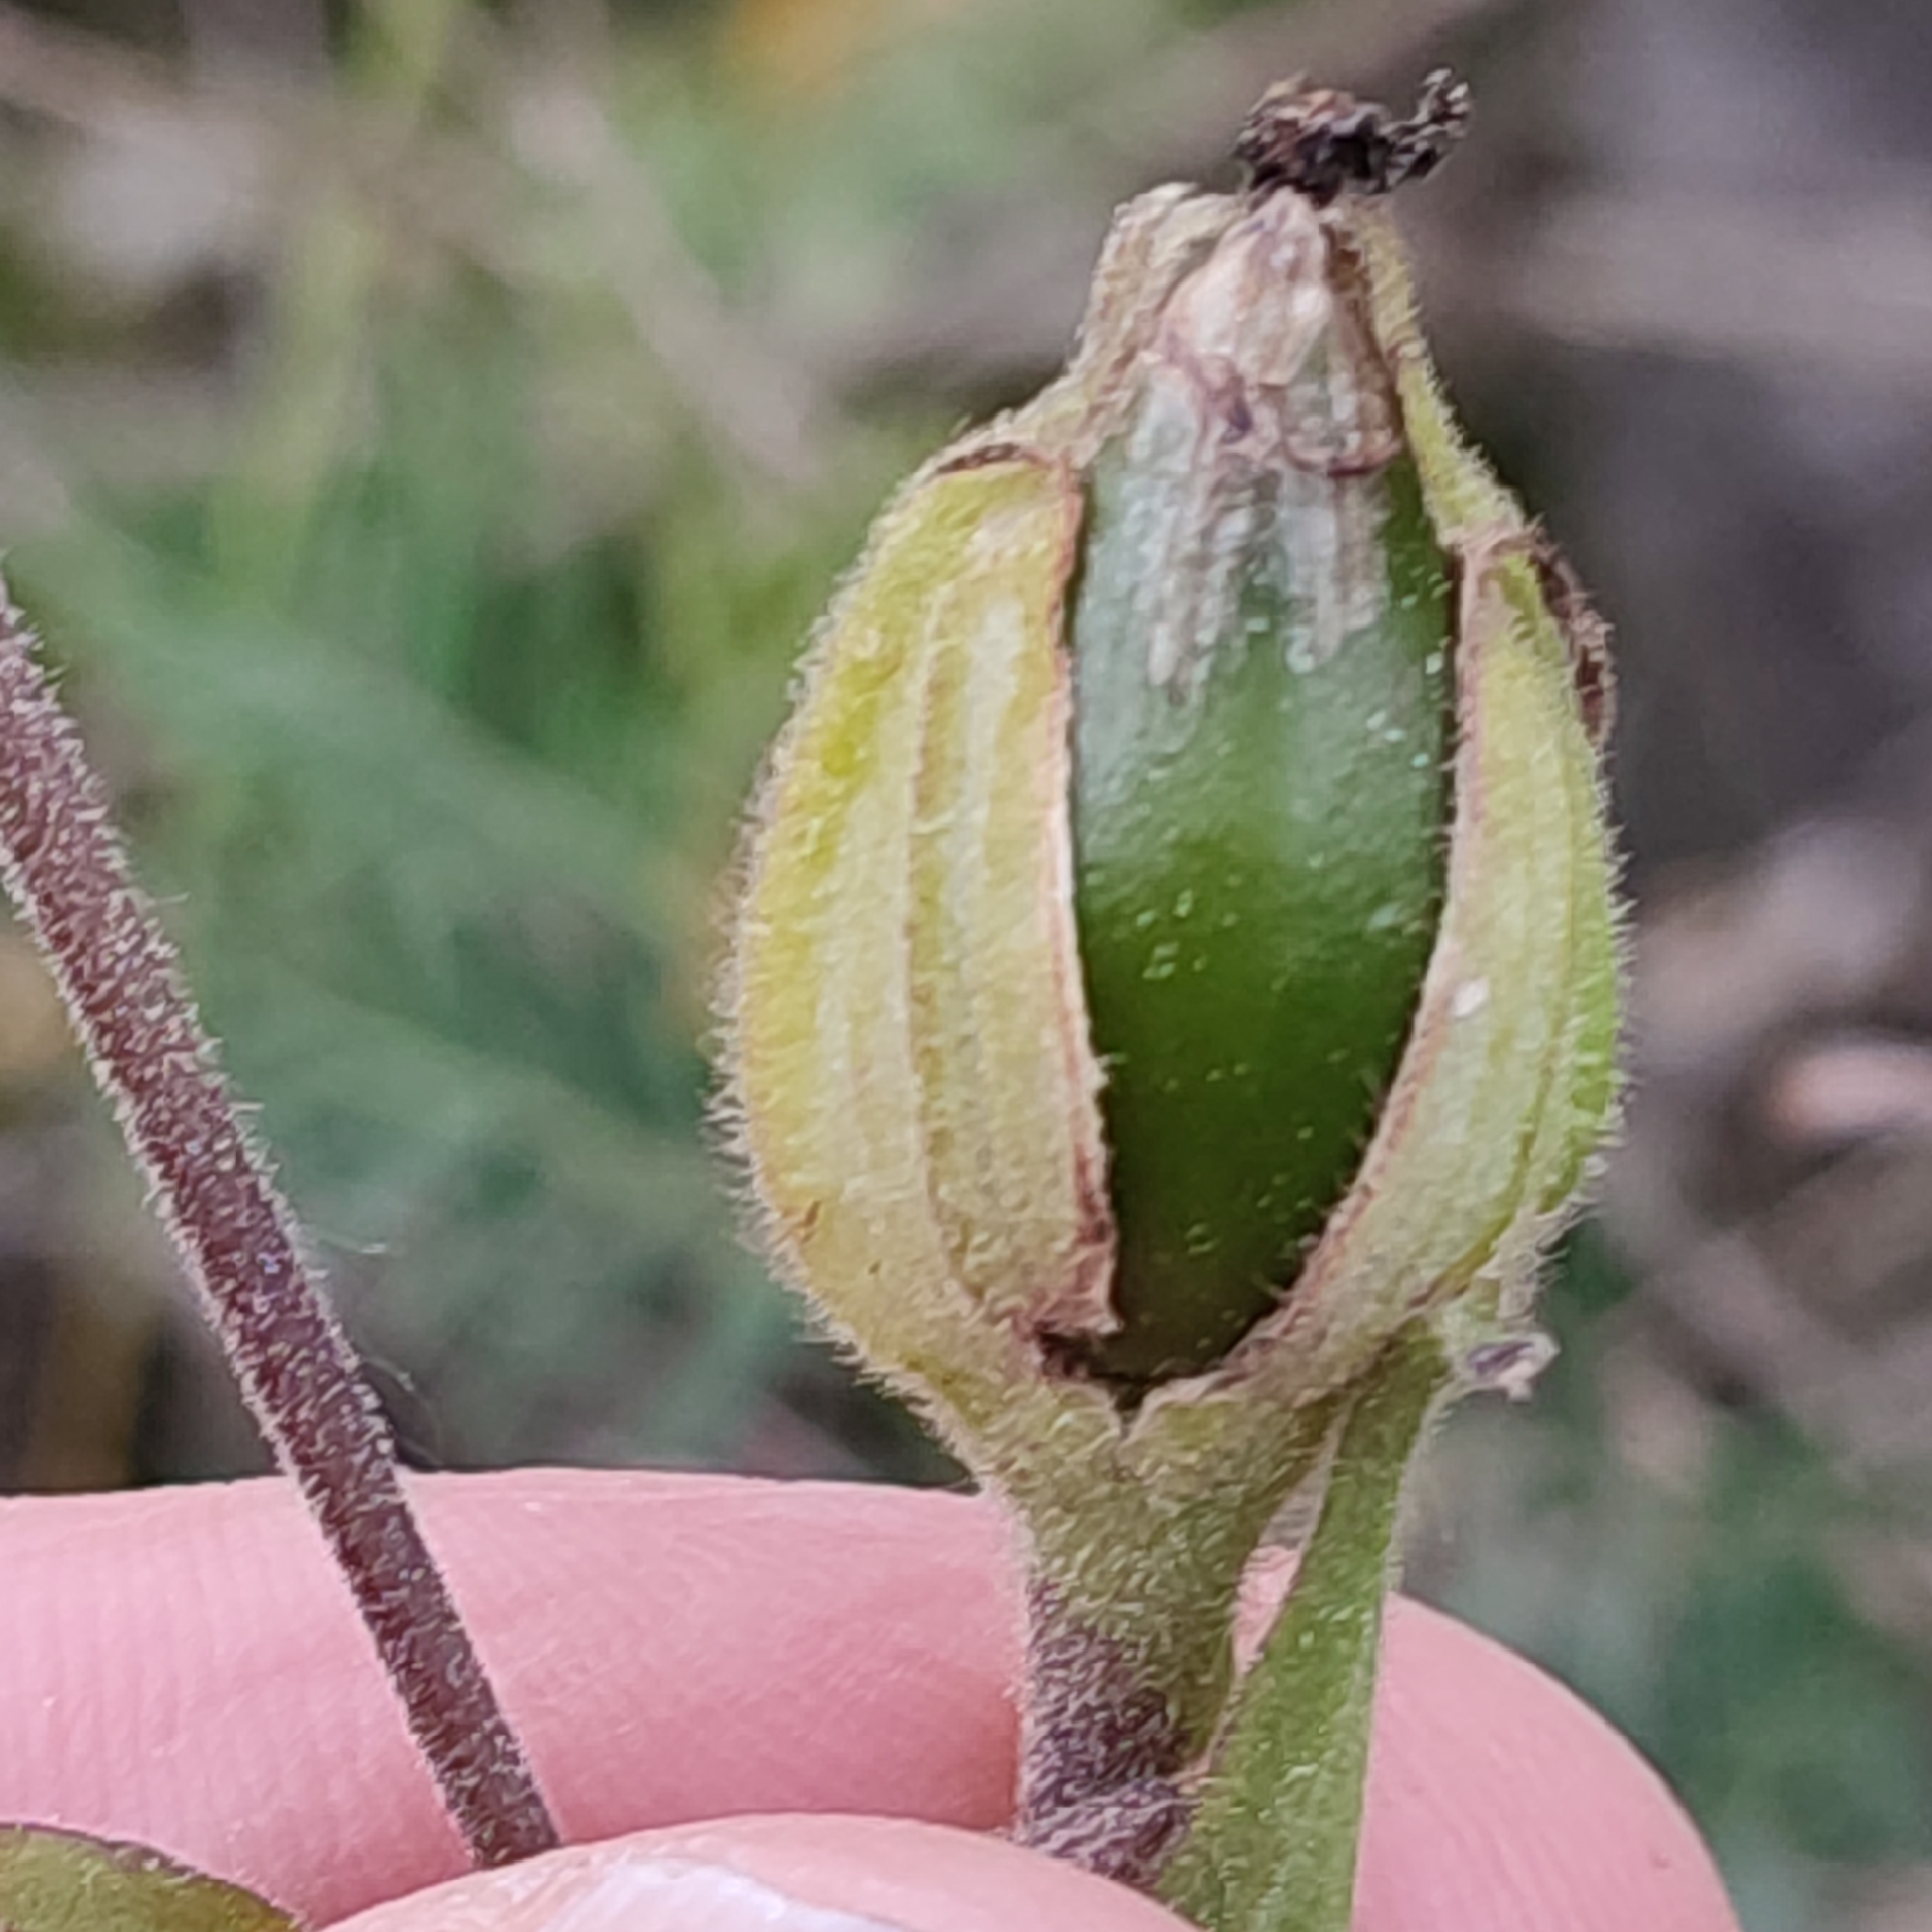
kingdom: Plantae
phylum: Tracheophyta
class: Magnoliopsida
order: Caryophyllales
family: Caryophyllaceae
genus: Silene
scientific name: Silene latifolia
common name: White campion
